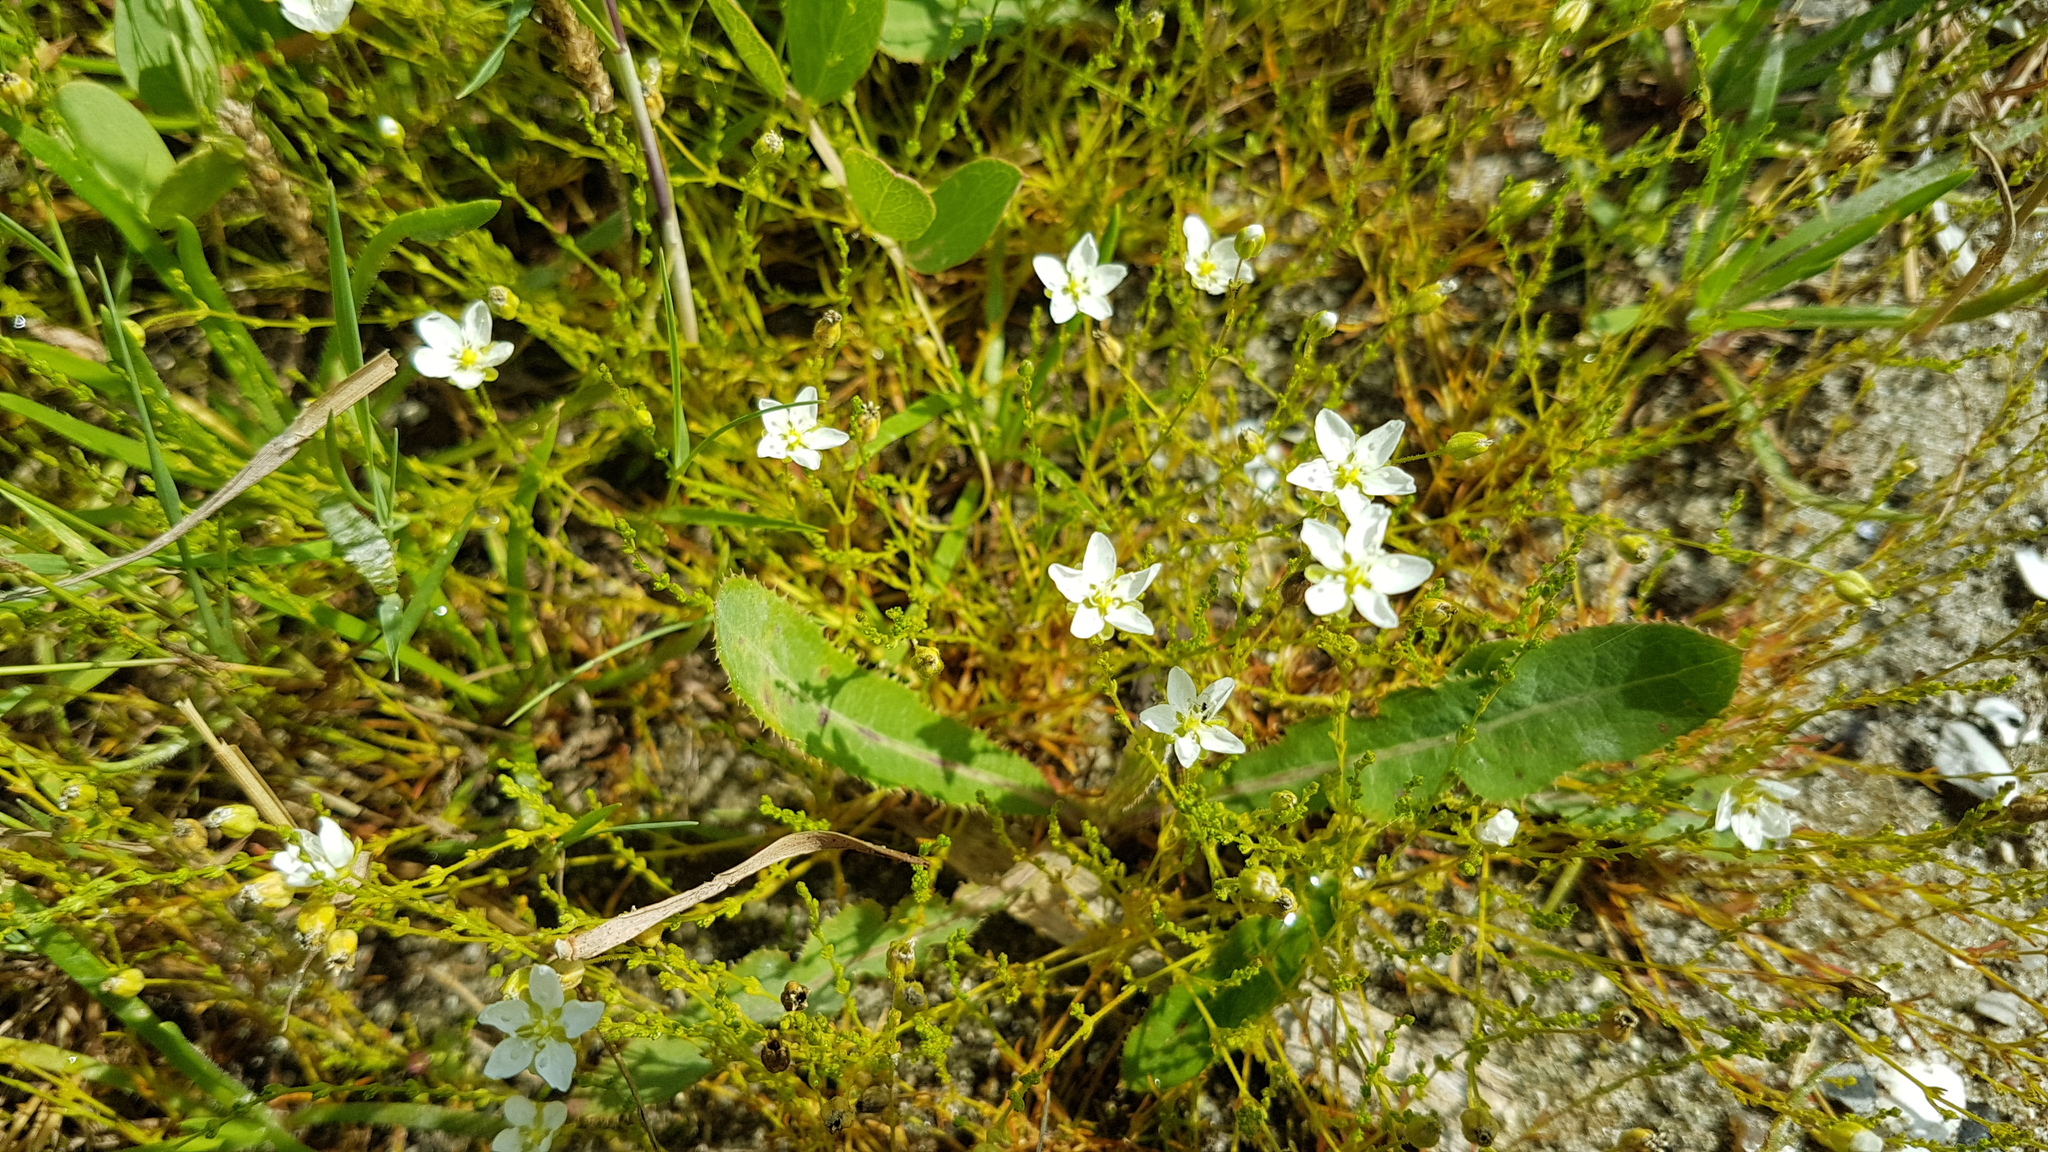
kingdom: Plantae
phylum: Tracheophyta
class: Magnoliopsida
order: Caryophyllales
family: Caryophyllaceae
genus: Sagina
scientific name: Sagina nodosa
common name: Knotted pearlwort
